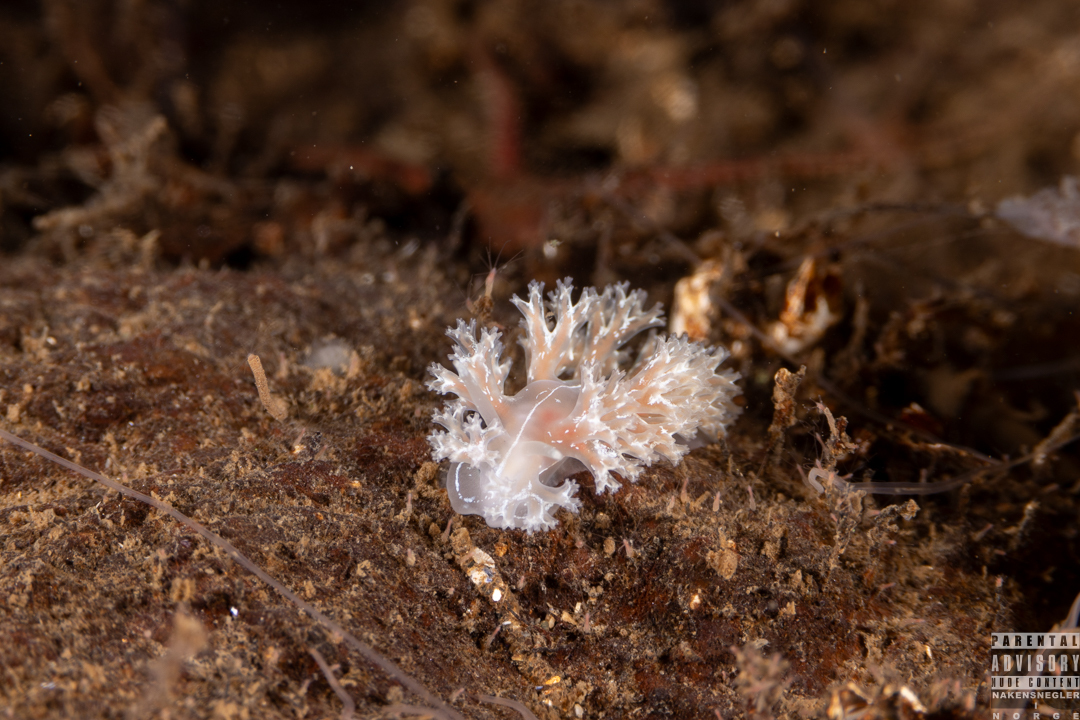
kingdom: Animalia
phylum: Mollusca
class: Gastropoda
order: Nudibranchia
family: Heroidae
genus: Hero
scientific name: Hero formosa
